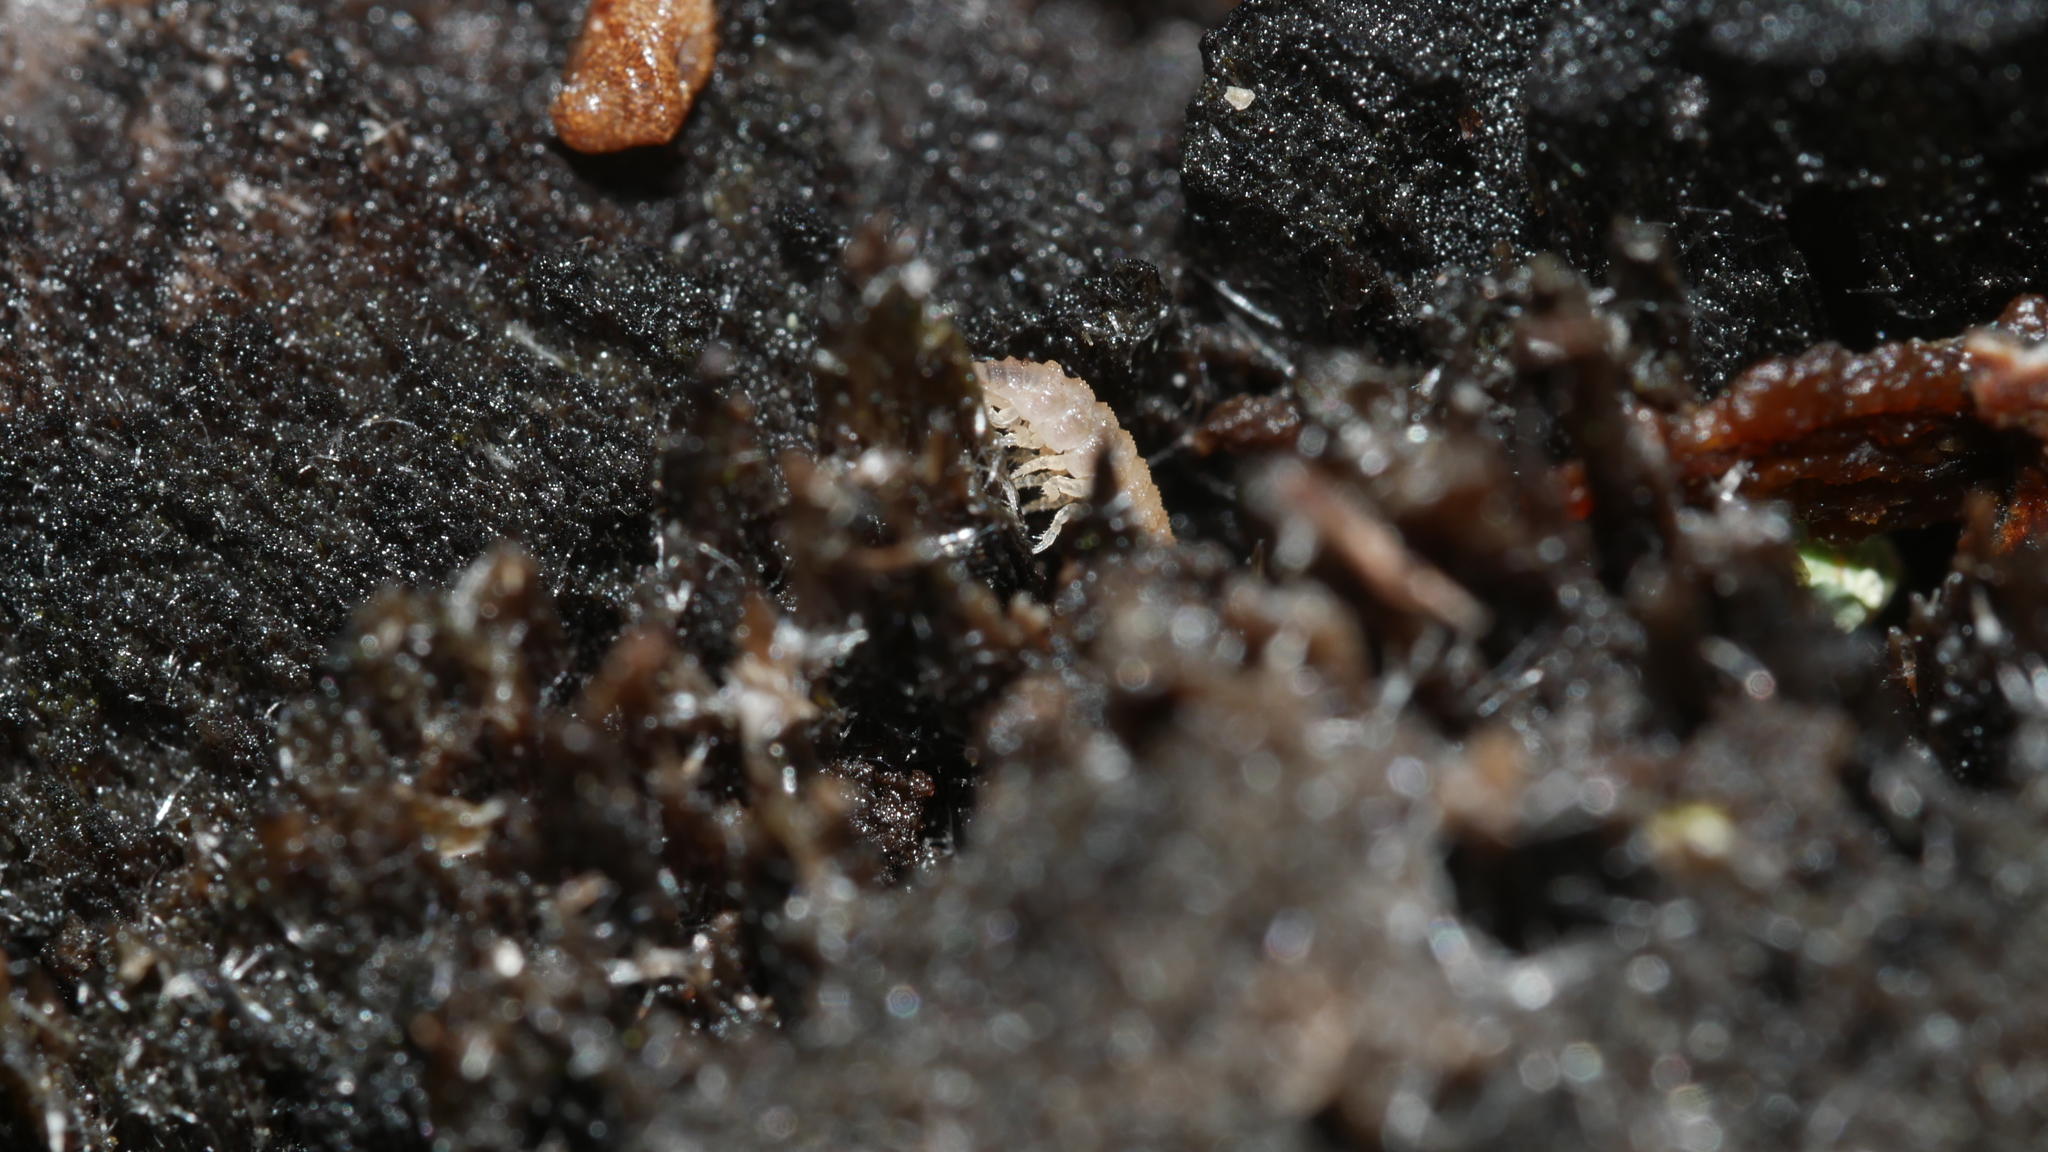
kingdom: Animalia
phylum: Arthropoda
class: Malacostraca
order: Isopoda
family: Trichoniscidae
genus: Haplophthalmus
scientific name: Haplophthalmus danicus
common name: Pillbug
